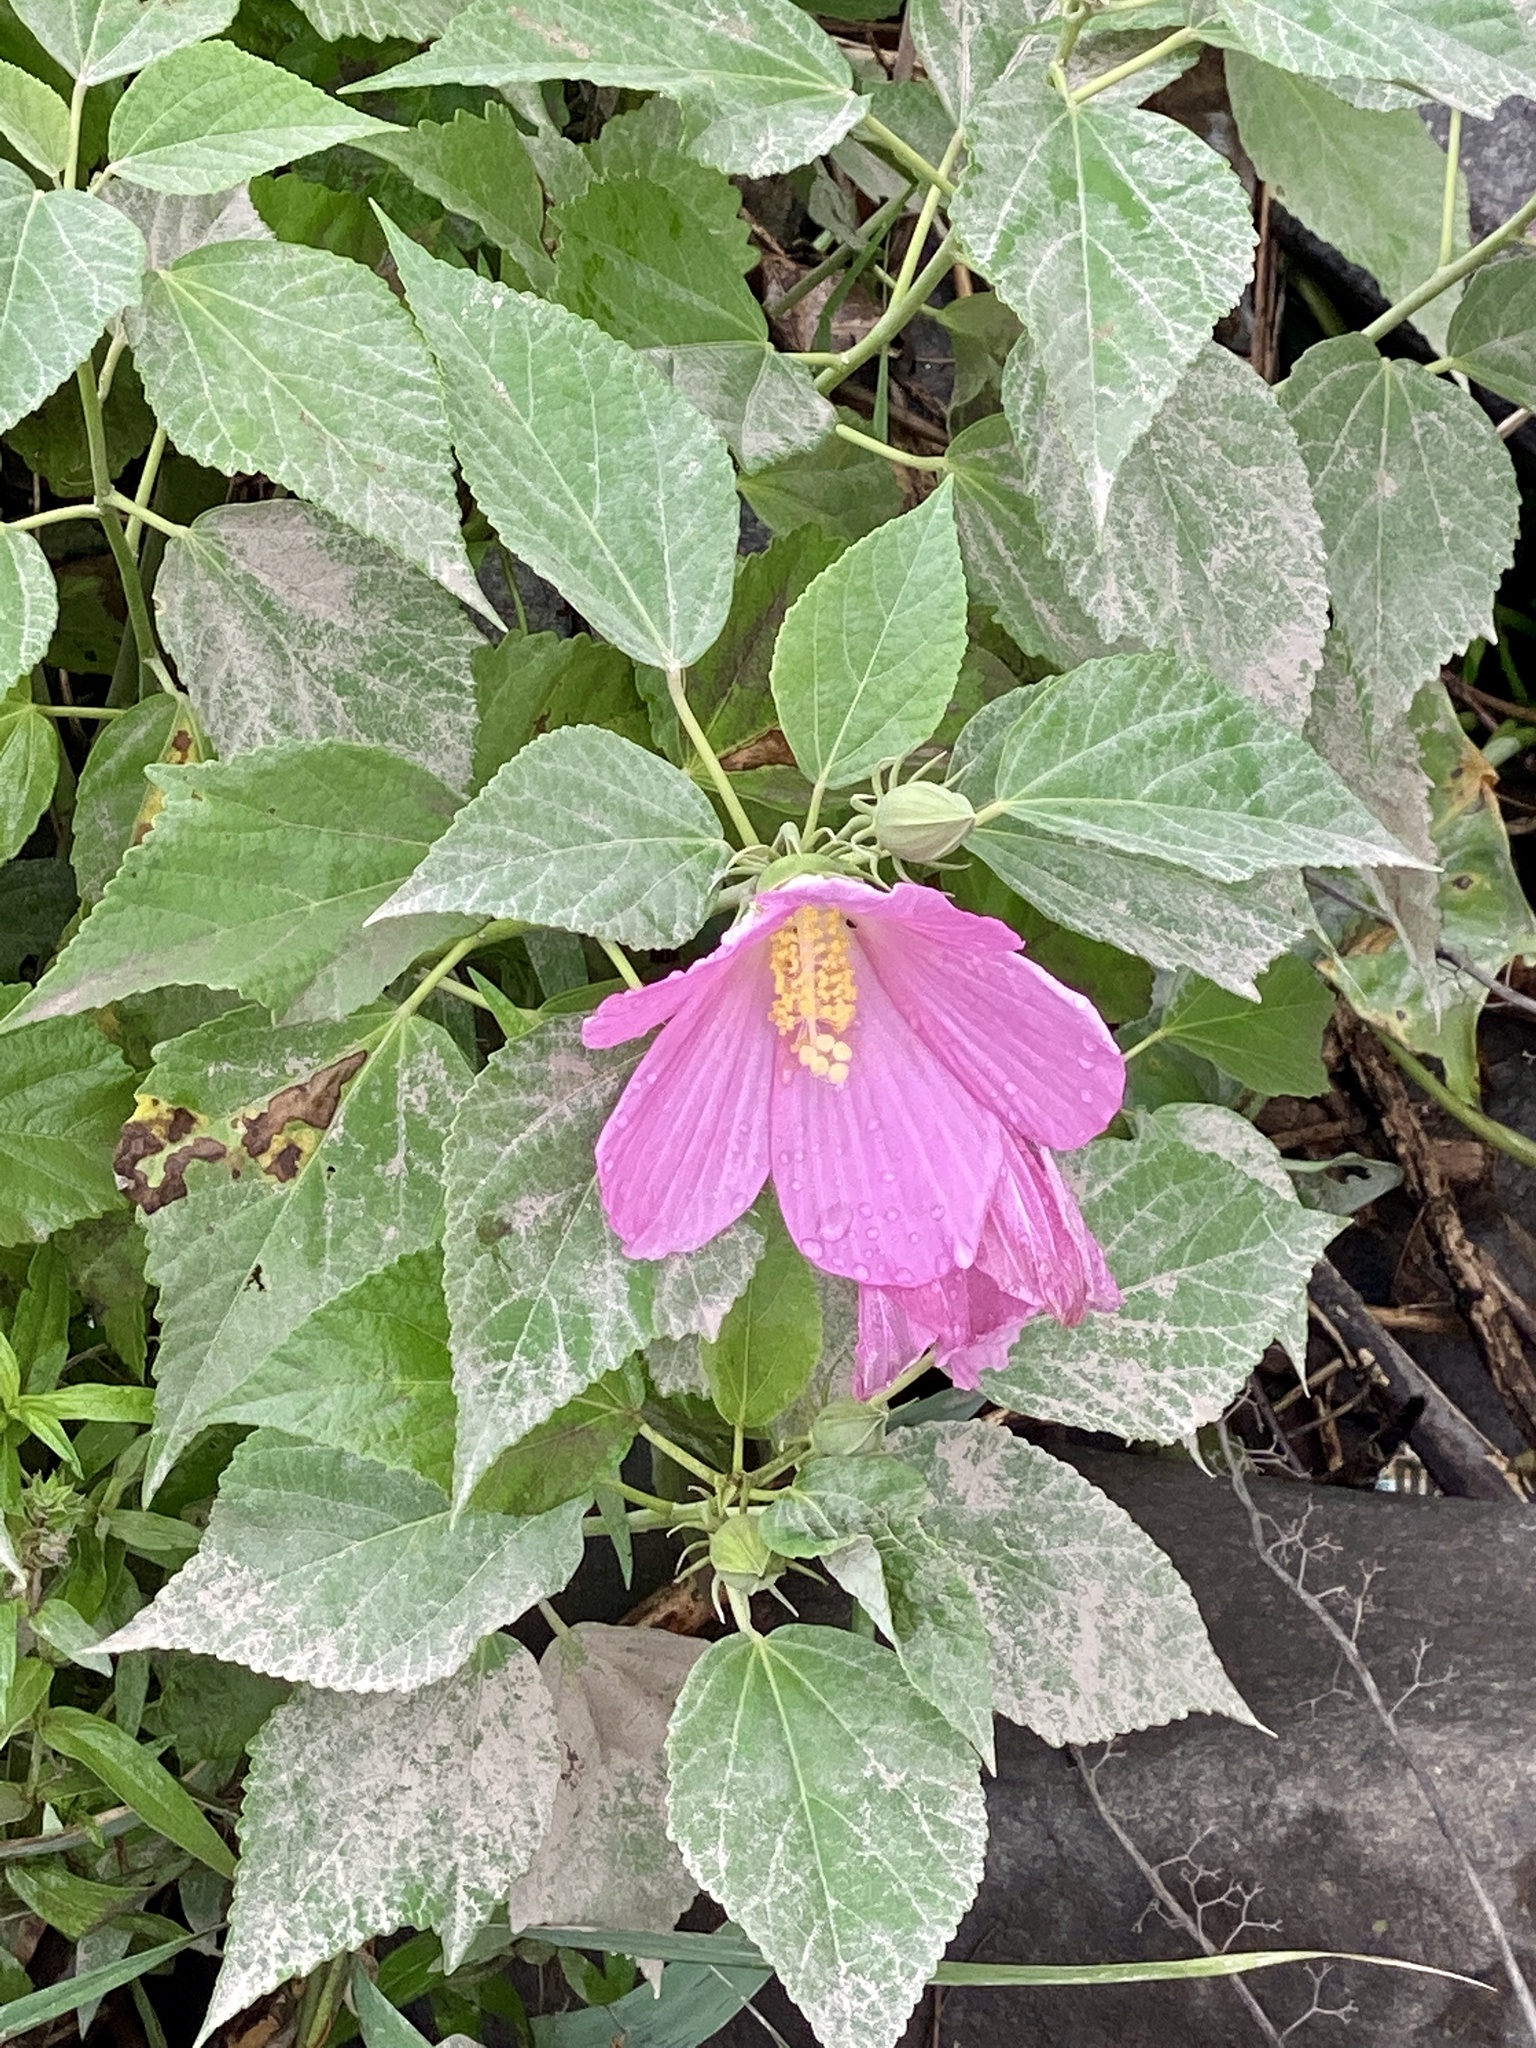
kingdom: Plantae
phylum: Tracheophyta
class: Magnoliopsida
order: Malvales
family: Malvaceae
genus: Hibiscus
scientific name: Hibiscus moscheutos
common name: Common rose-mallow
